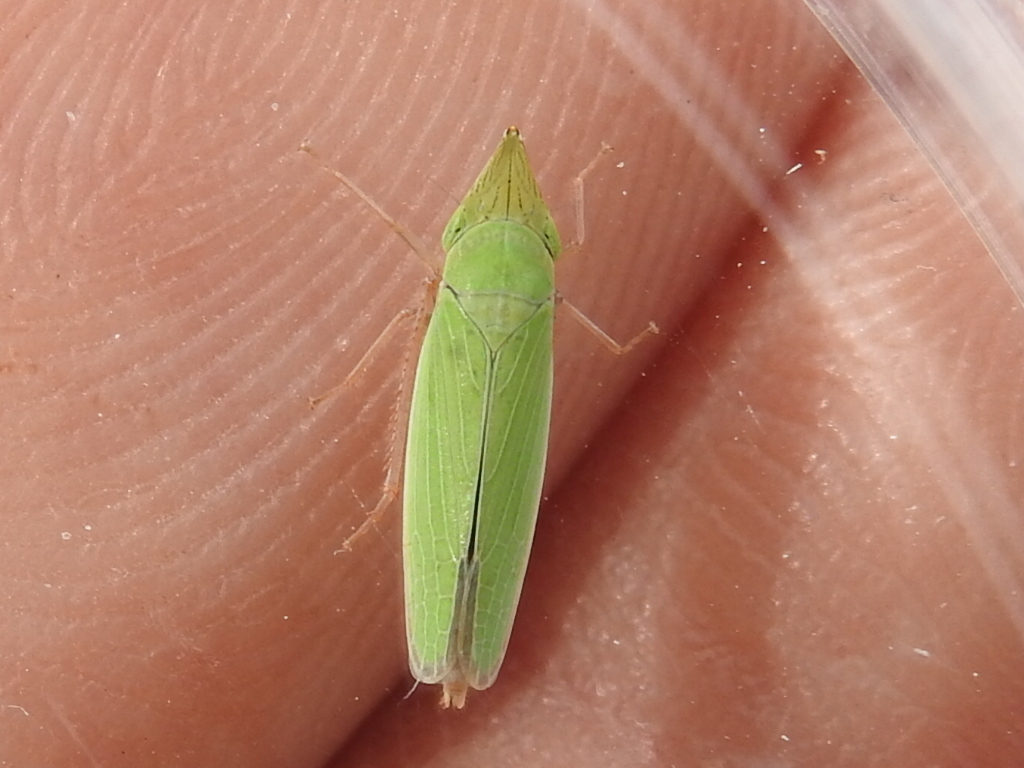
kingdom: Animalia
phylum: Arthropoda
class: Insecta
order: Hemiptera
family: Cicadellidae
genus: Draeculacephala
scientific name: Draeculacephala antica
